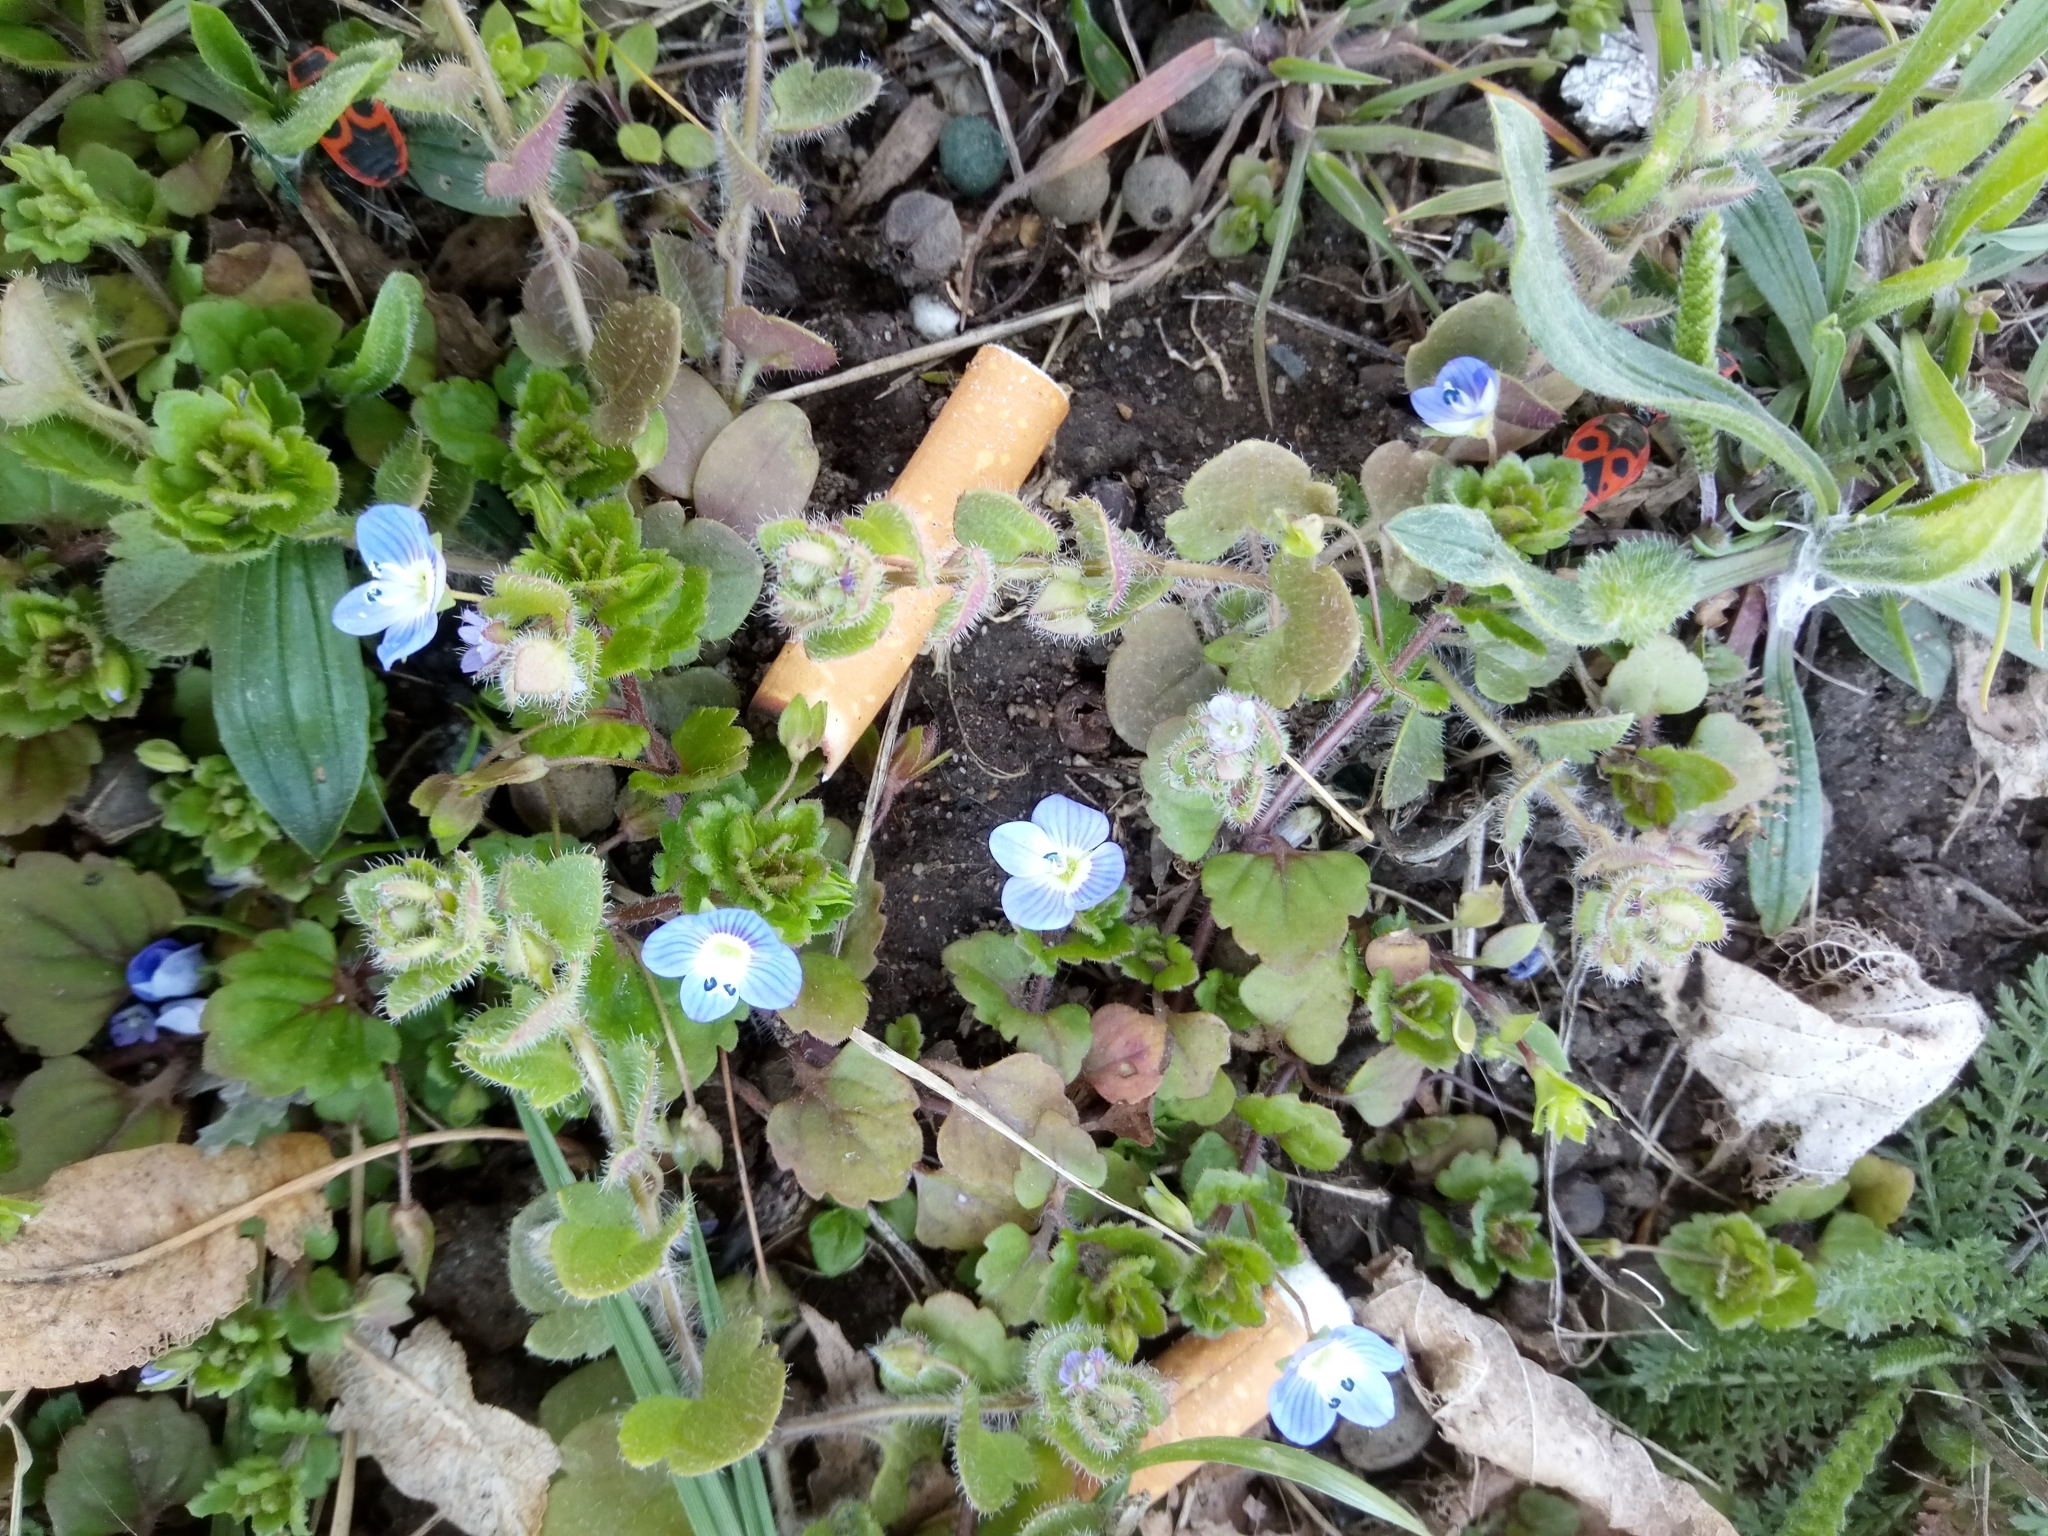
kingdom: Plantae
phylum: Tracheophyta
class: Magnoliopsida
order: Lamiales
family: Plantaginaceae
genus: Veronica
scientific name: Veronica sublobata
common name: False ivy-leaved speedwell
